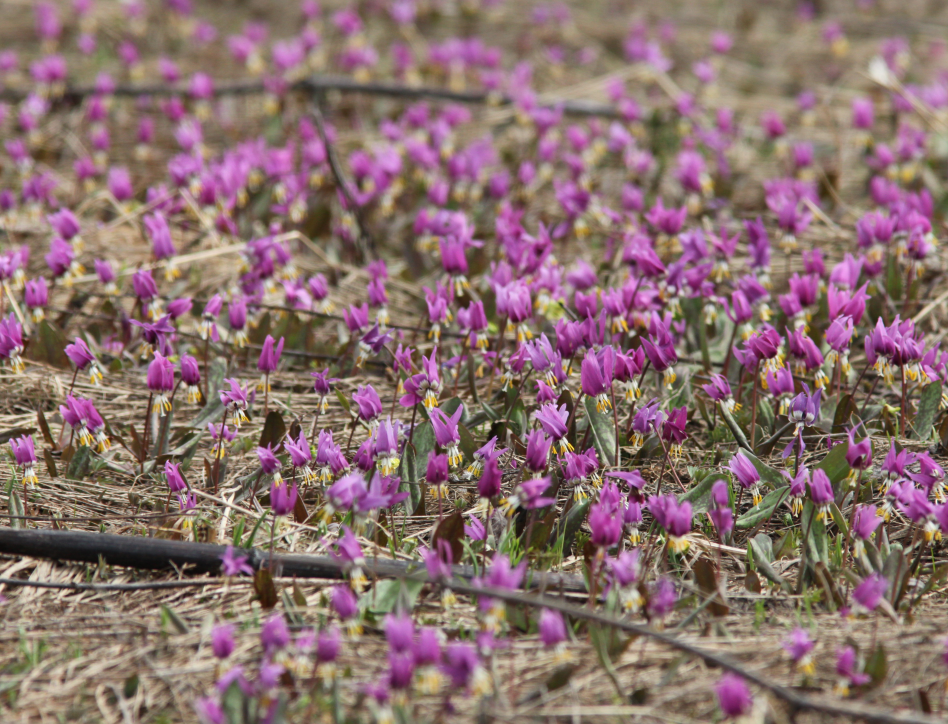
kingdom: Plantae
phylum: Tracheophyta
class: Liliopsida
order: Liliales
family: Liliaceae
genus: Erythronium
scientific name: Erythronium sibiricum
